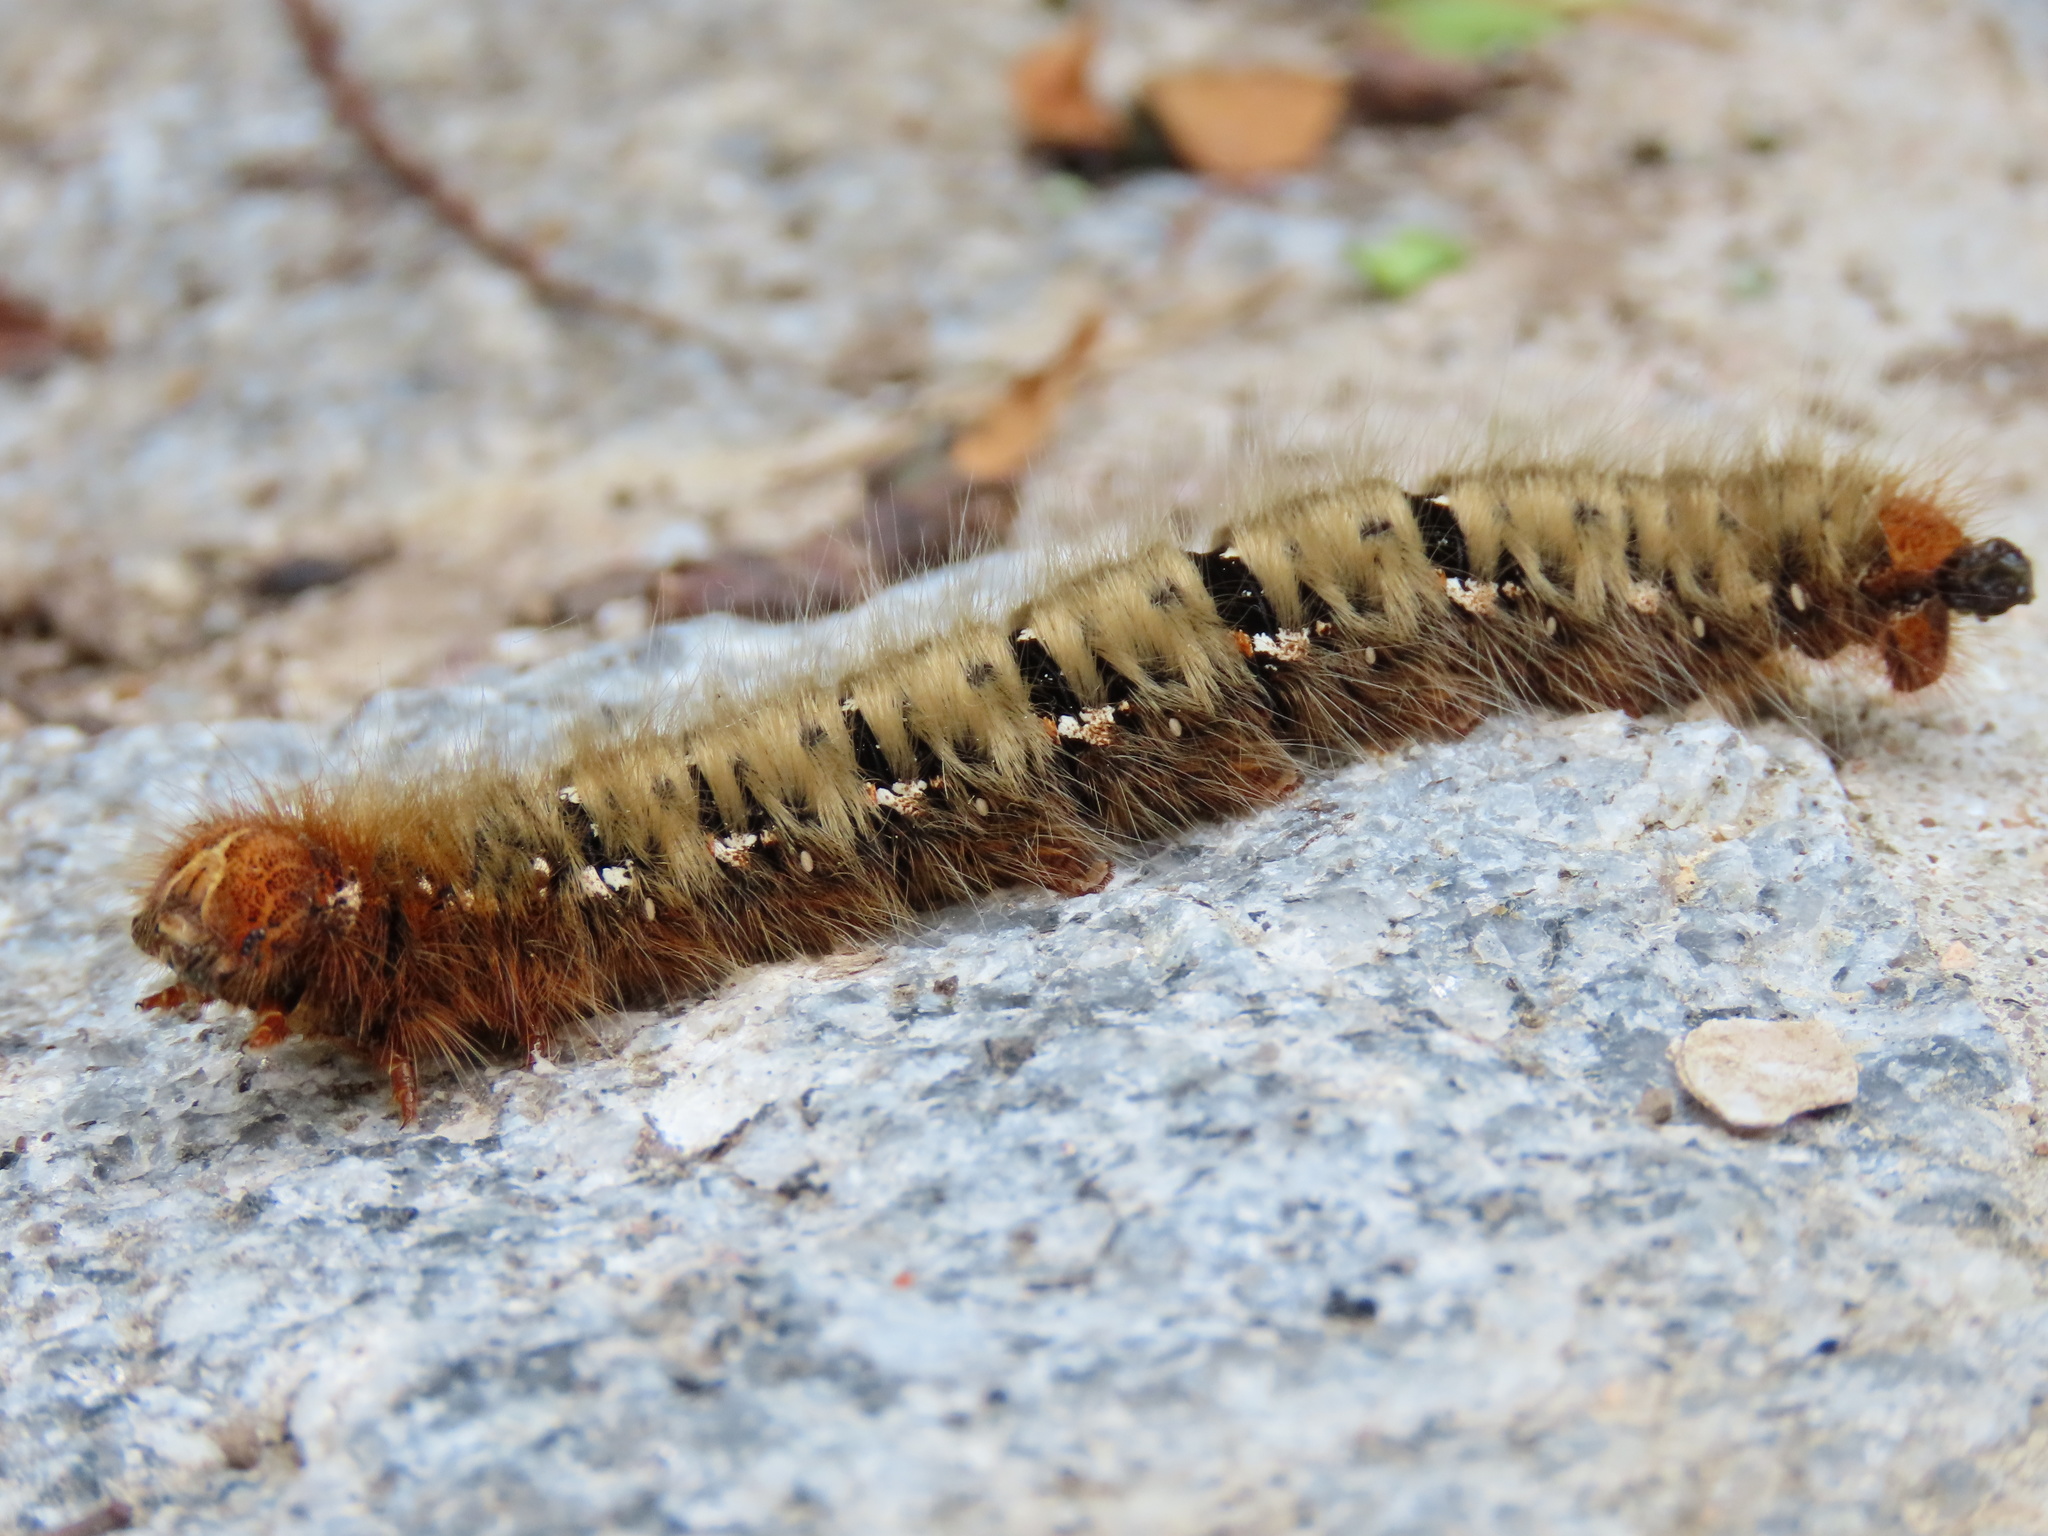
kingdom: Animalia
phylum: Arthropoda
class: Insecta
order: Lepidoptera
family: Lasiocampidae
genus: Lasiocampa
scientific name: Lasiocampa quercus
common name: Oak eggar
